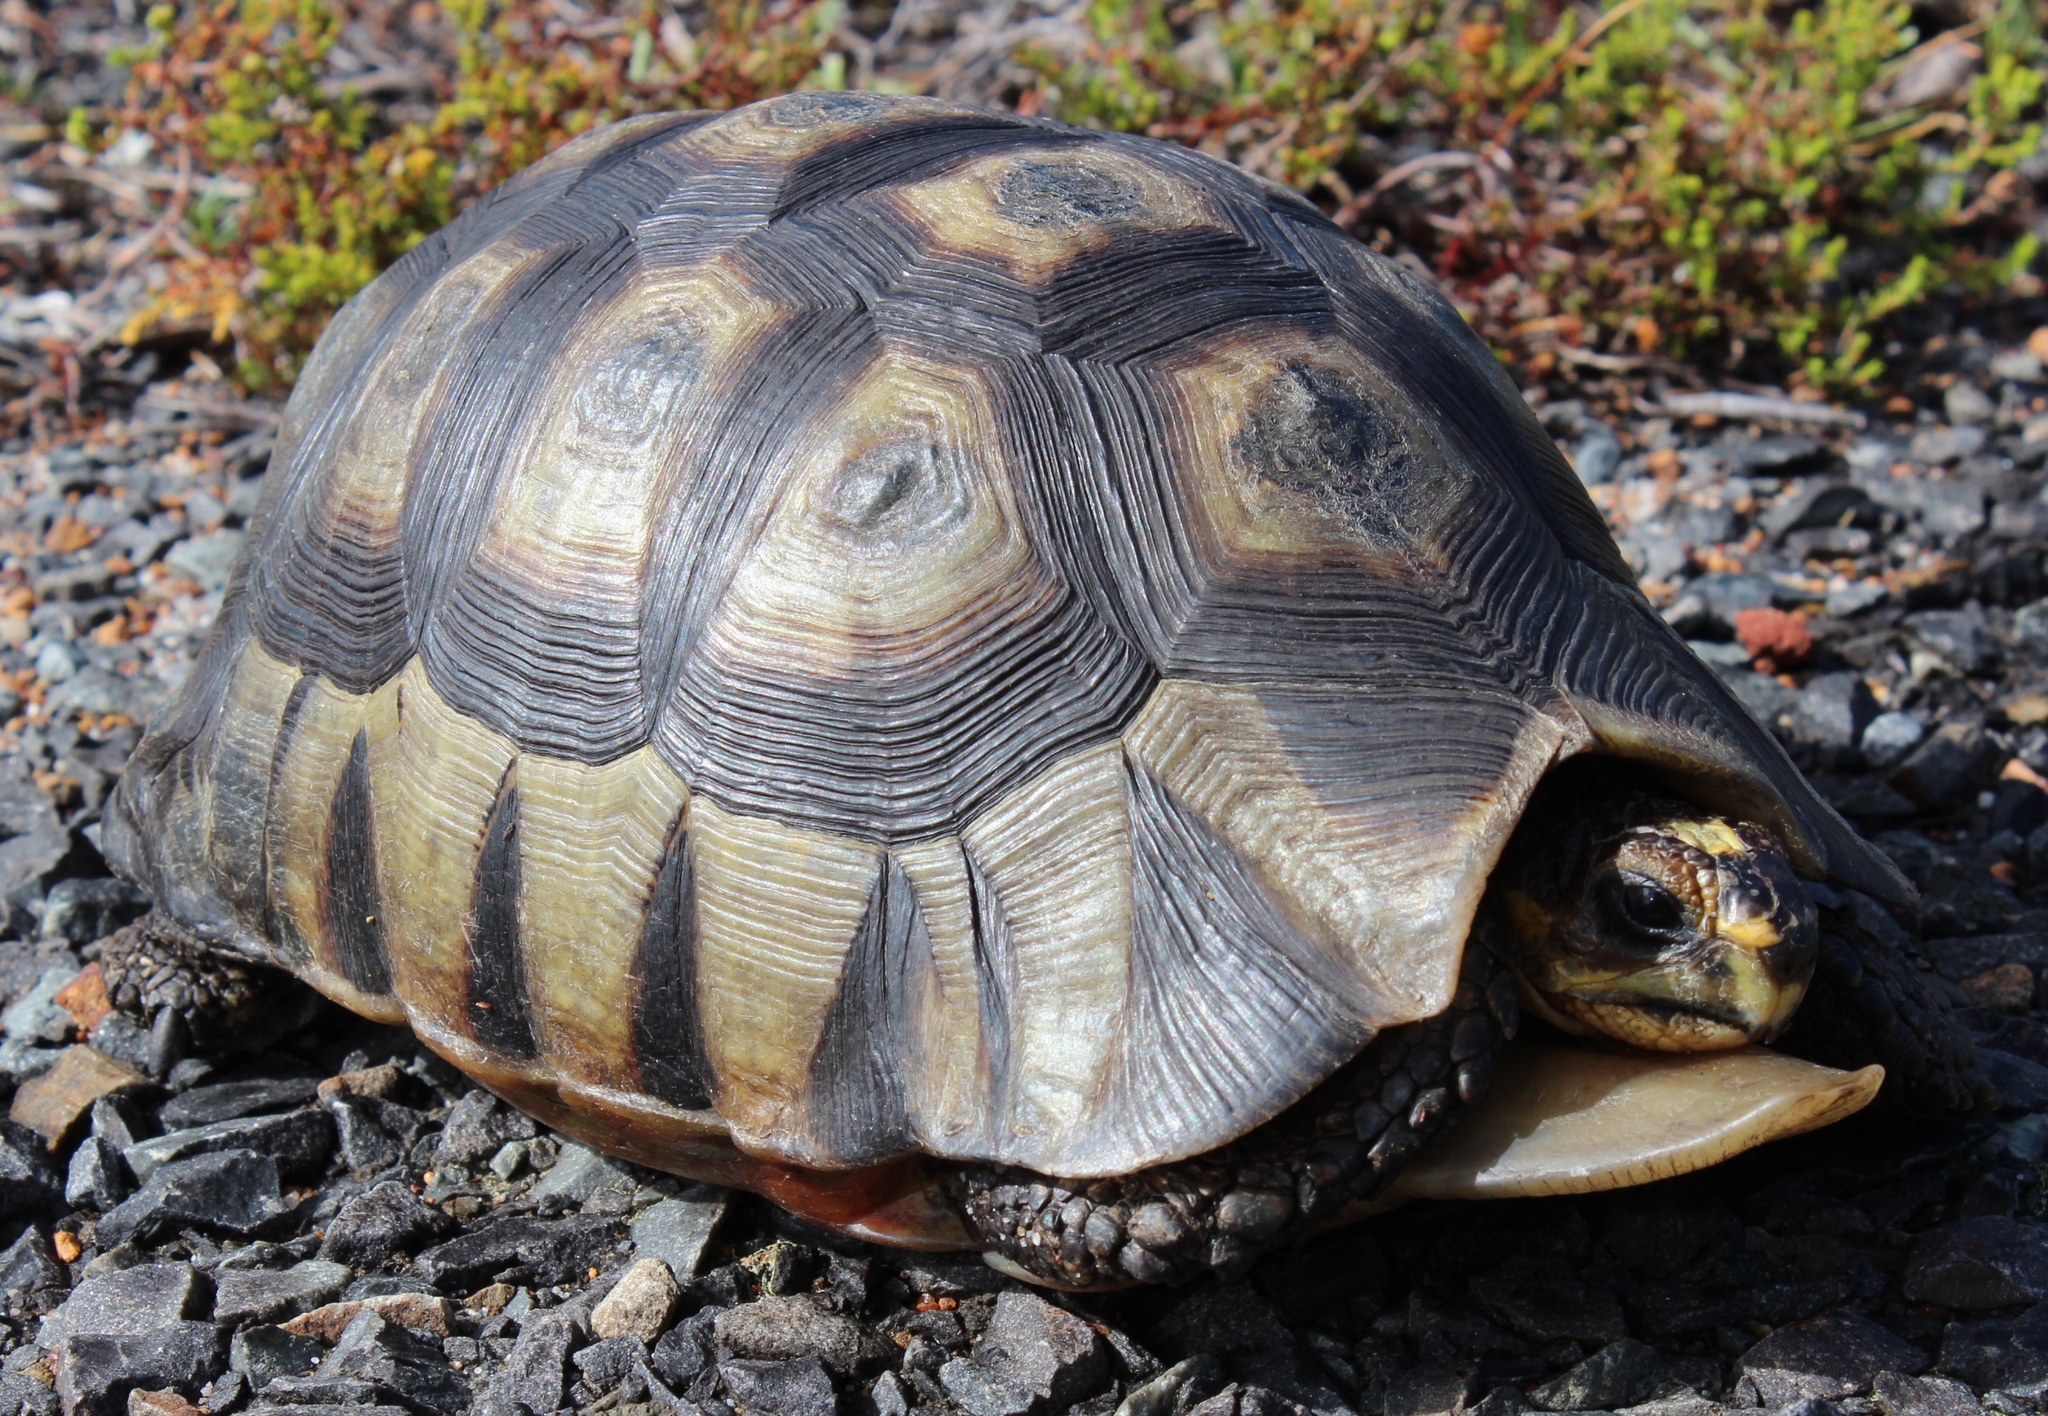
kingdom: Animalia
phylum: Chordata
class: Testudines
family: Testudinidae
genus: Chersina
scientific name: Chersina angulata
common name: South african bowsprit tortoise
